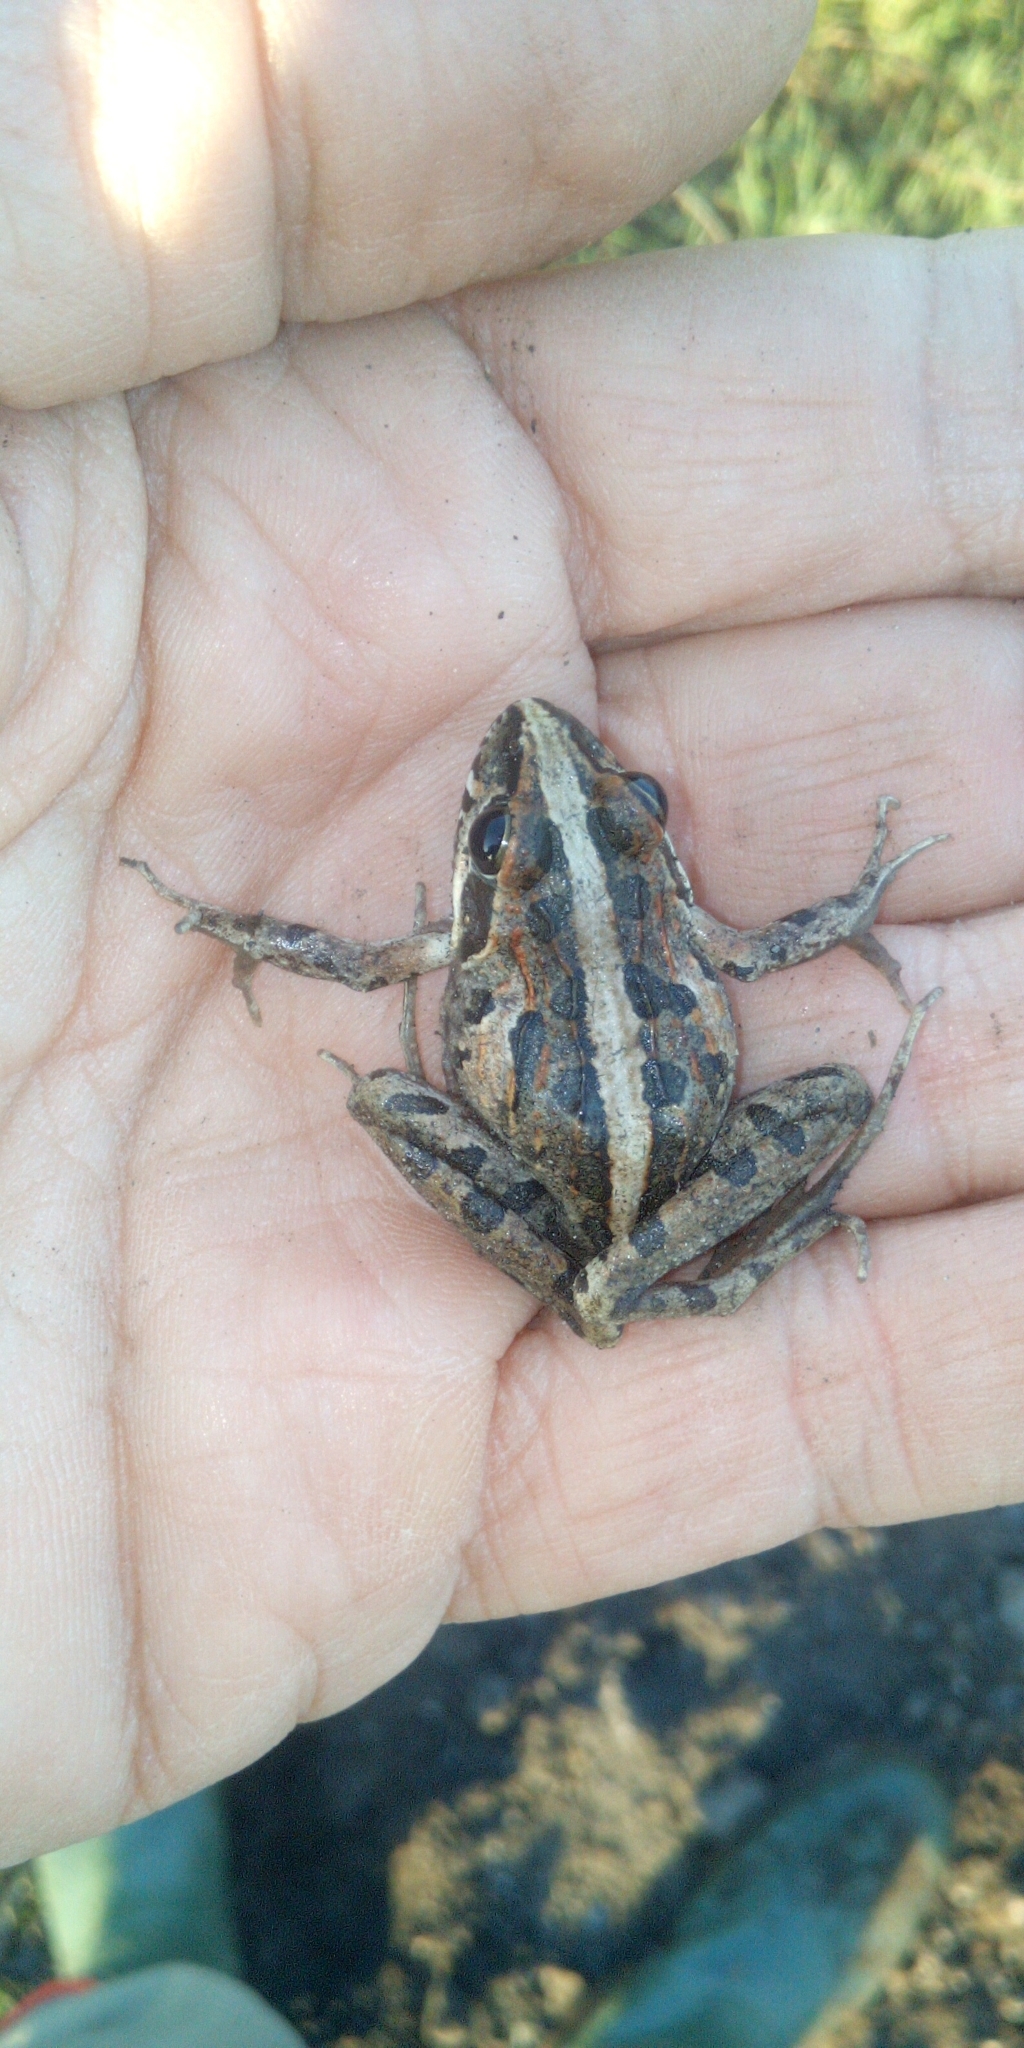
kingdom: Animalia
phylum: Chordata
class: Amphibia
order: Anura
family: Pyxicephalidae
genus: Strongylopus
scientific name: Strongylopus grayii
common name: Gray's stream frog
